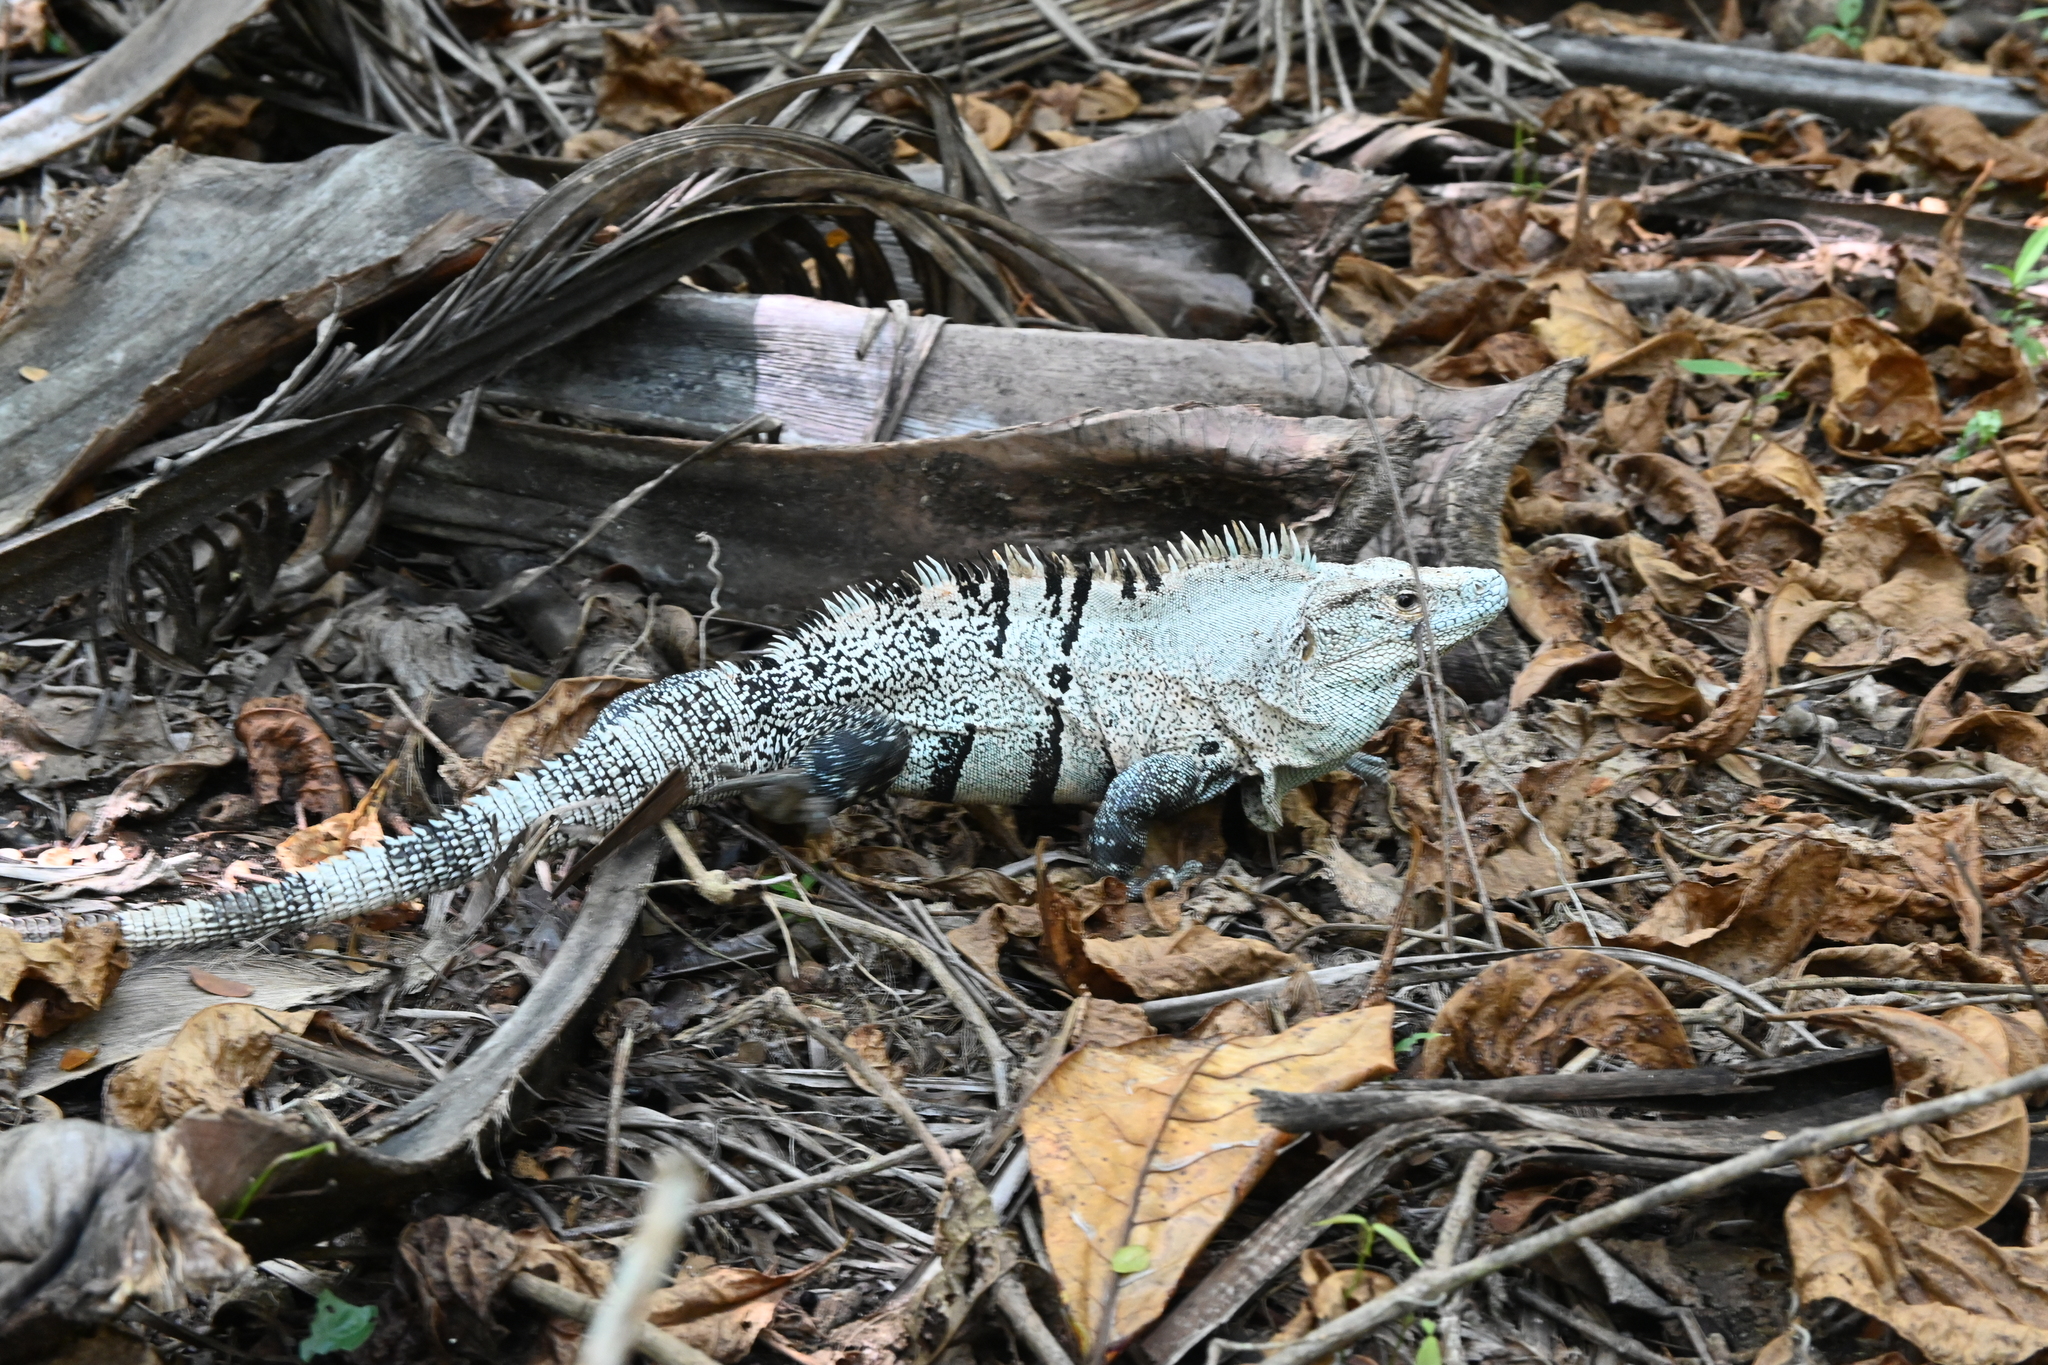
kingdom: Animalia
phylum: Chordata
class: Squamata
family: Iguanidae
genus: Ctenosaura
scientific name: Ctenosaura similis
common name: Black spiny-tailed iguana
